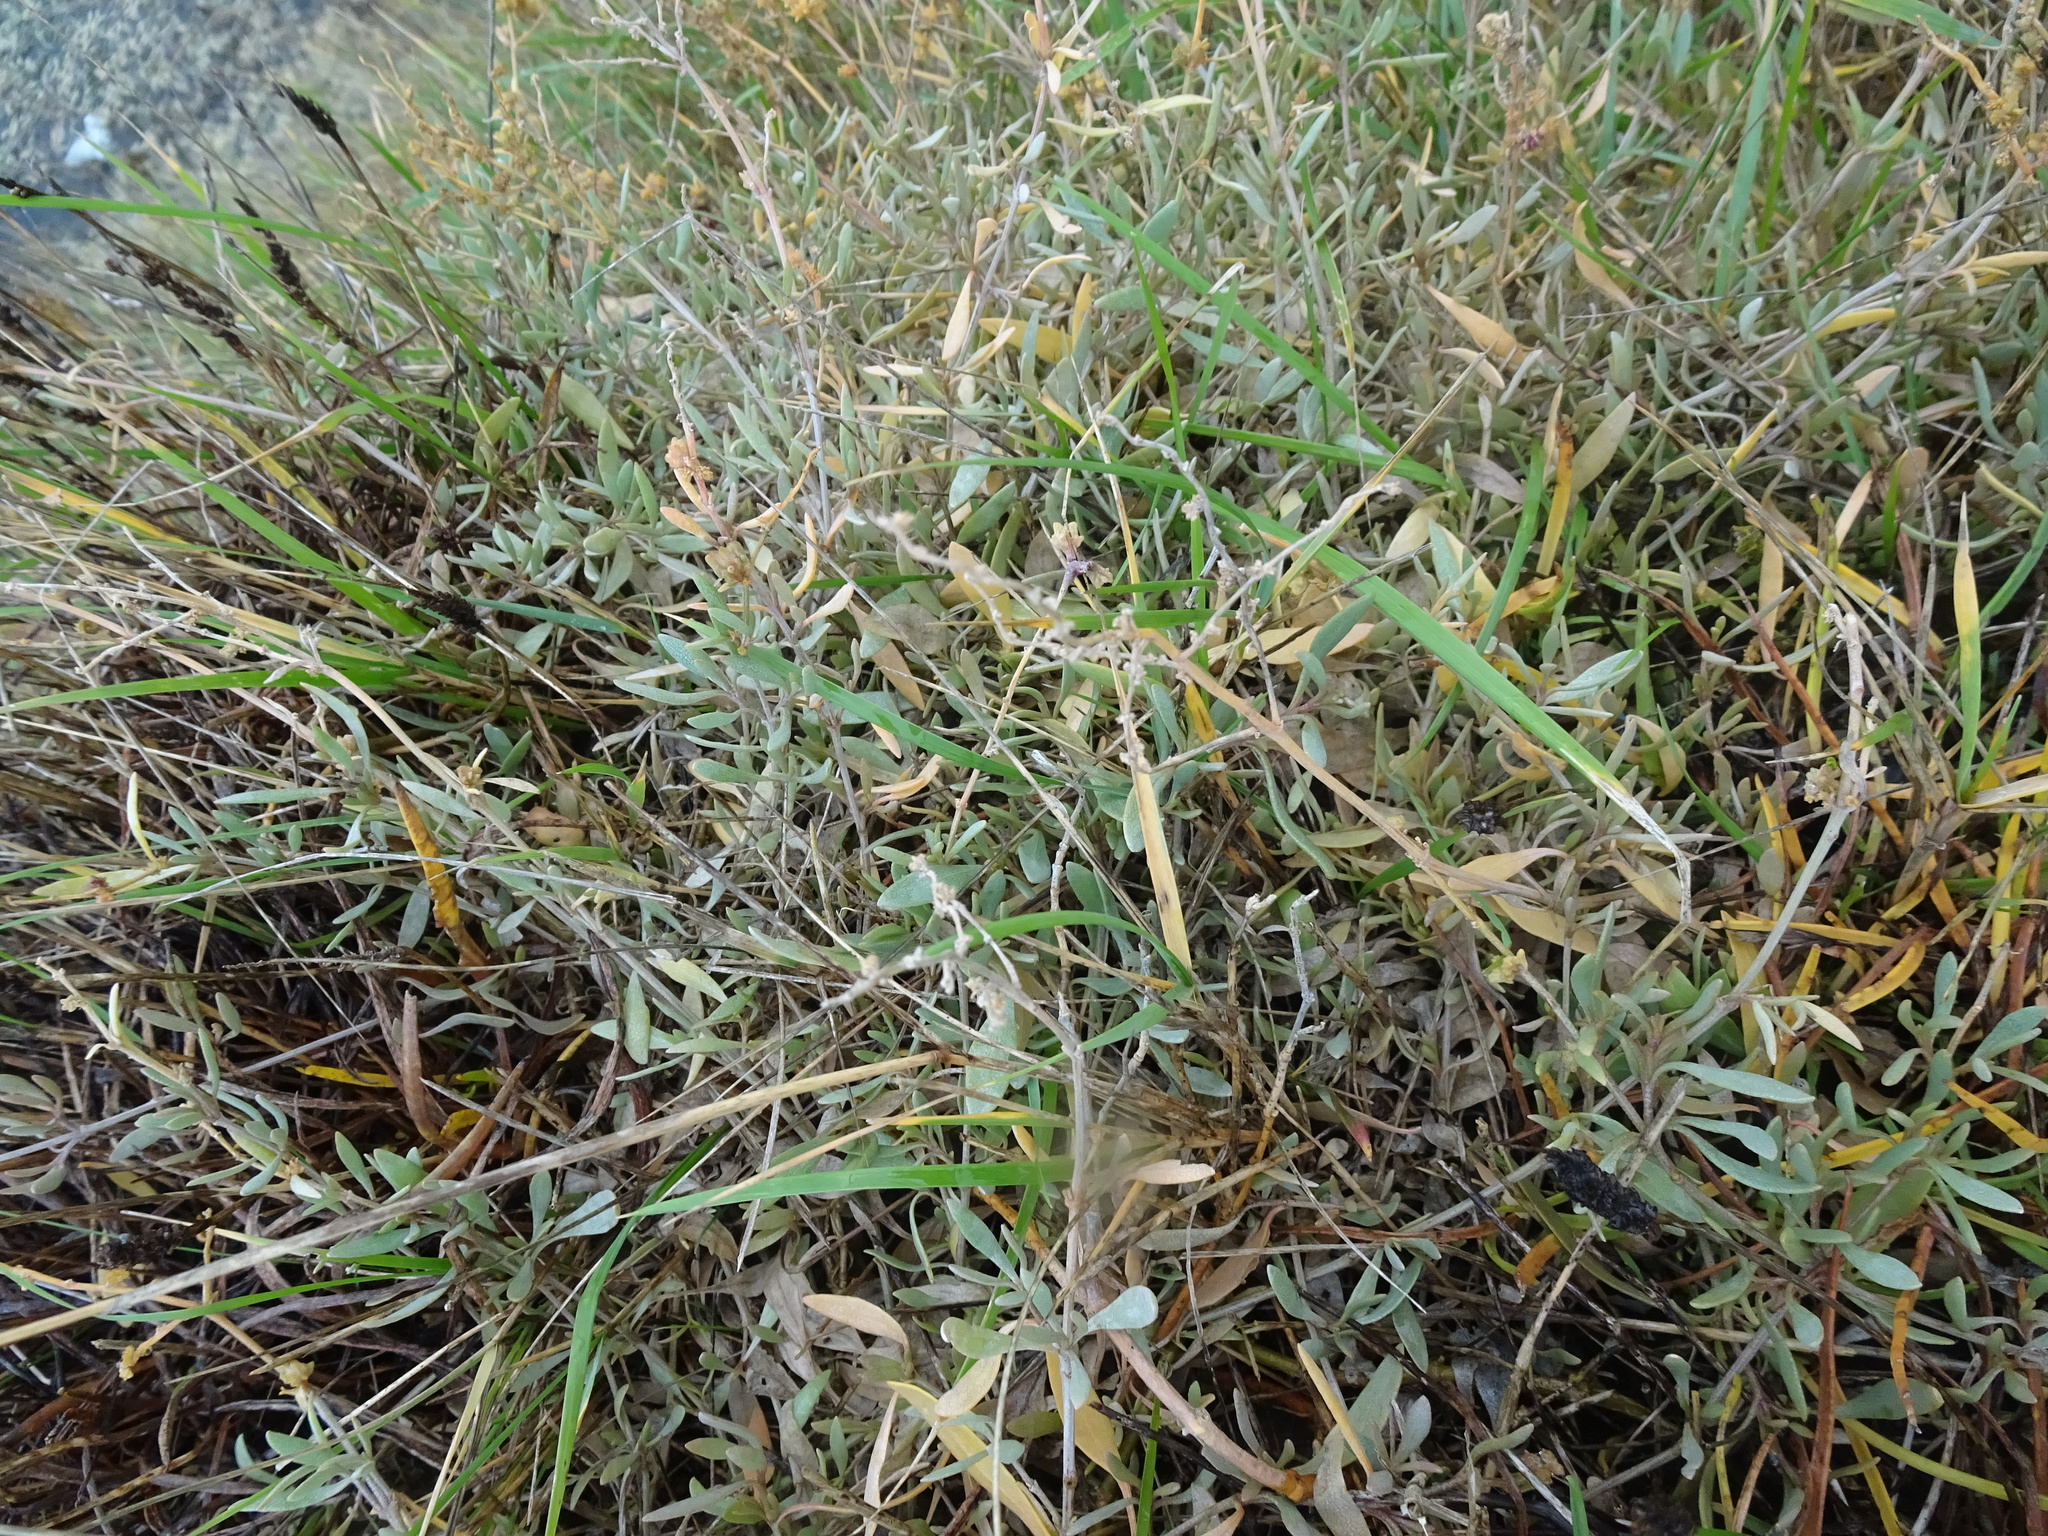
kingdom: Plantae
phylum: Tracheophyta
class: Magnoliopsida
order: Caryophyllales
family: Amaranthaceae
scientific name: Amaranthaceae
